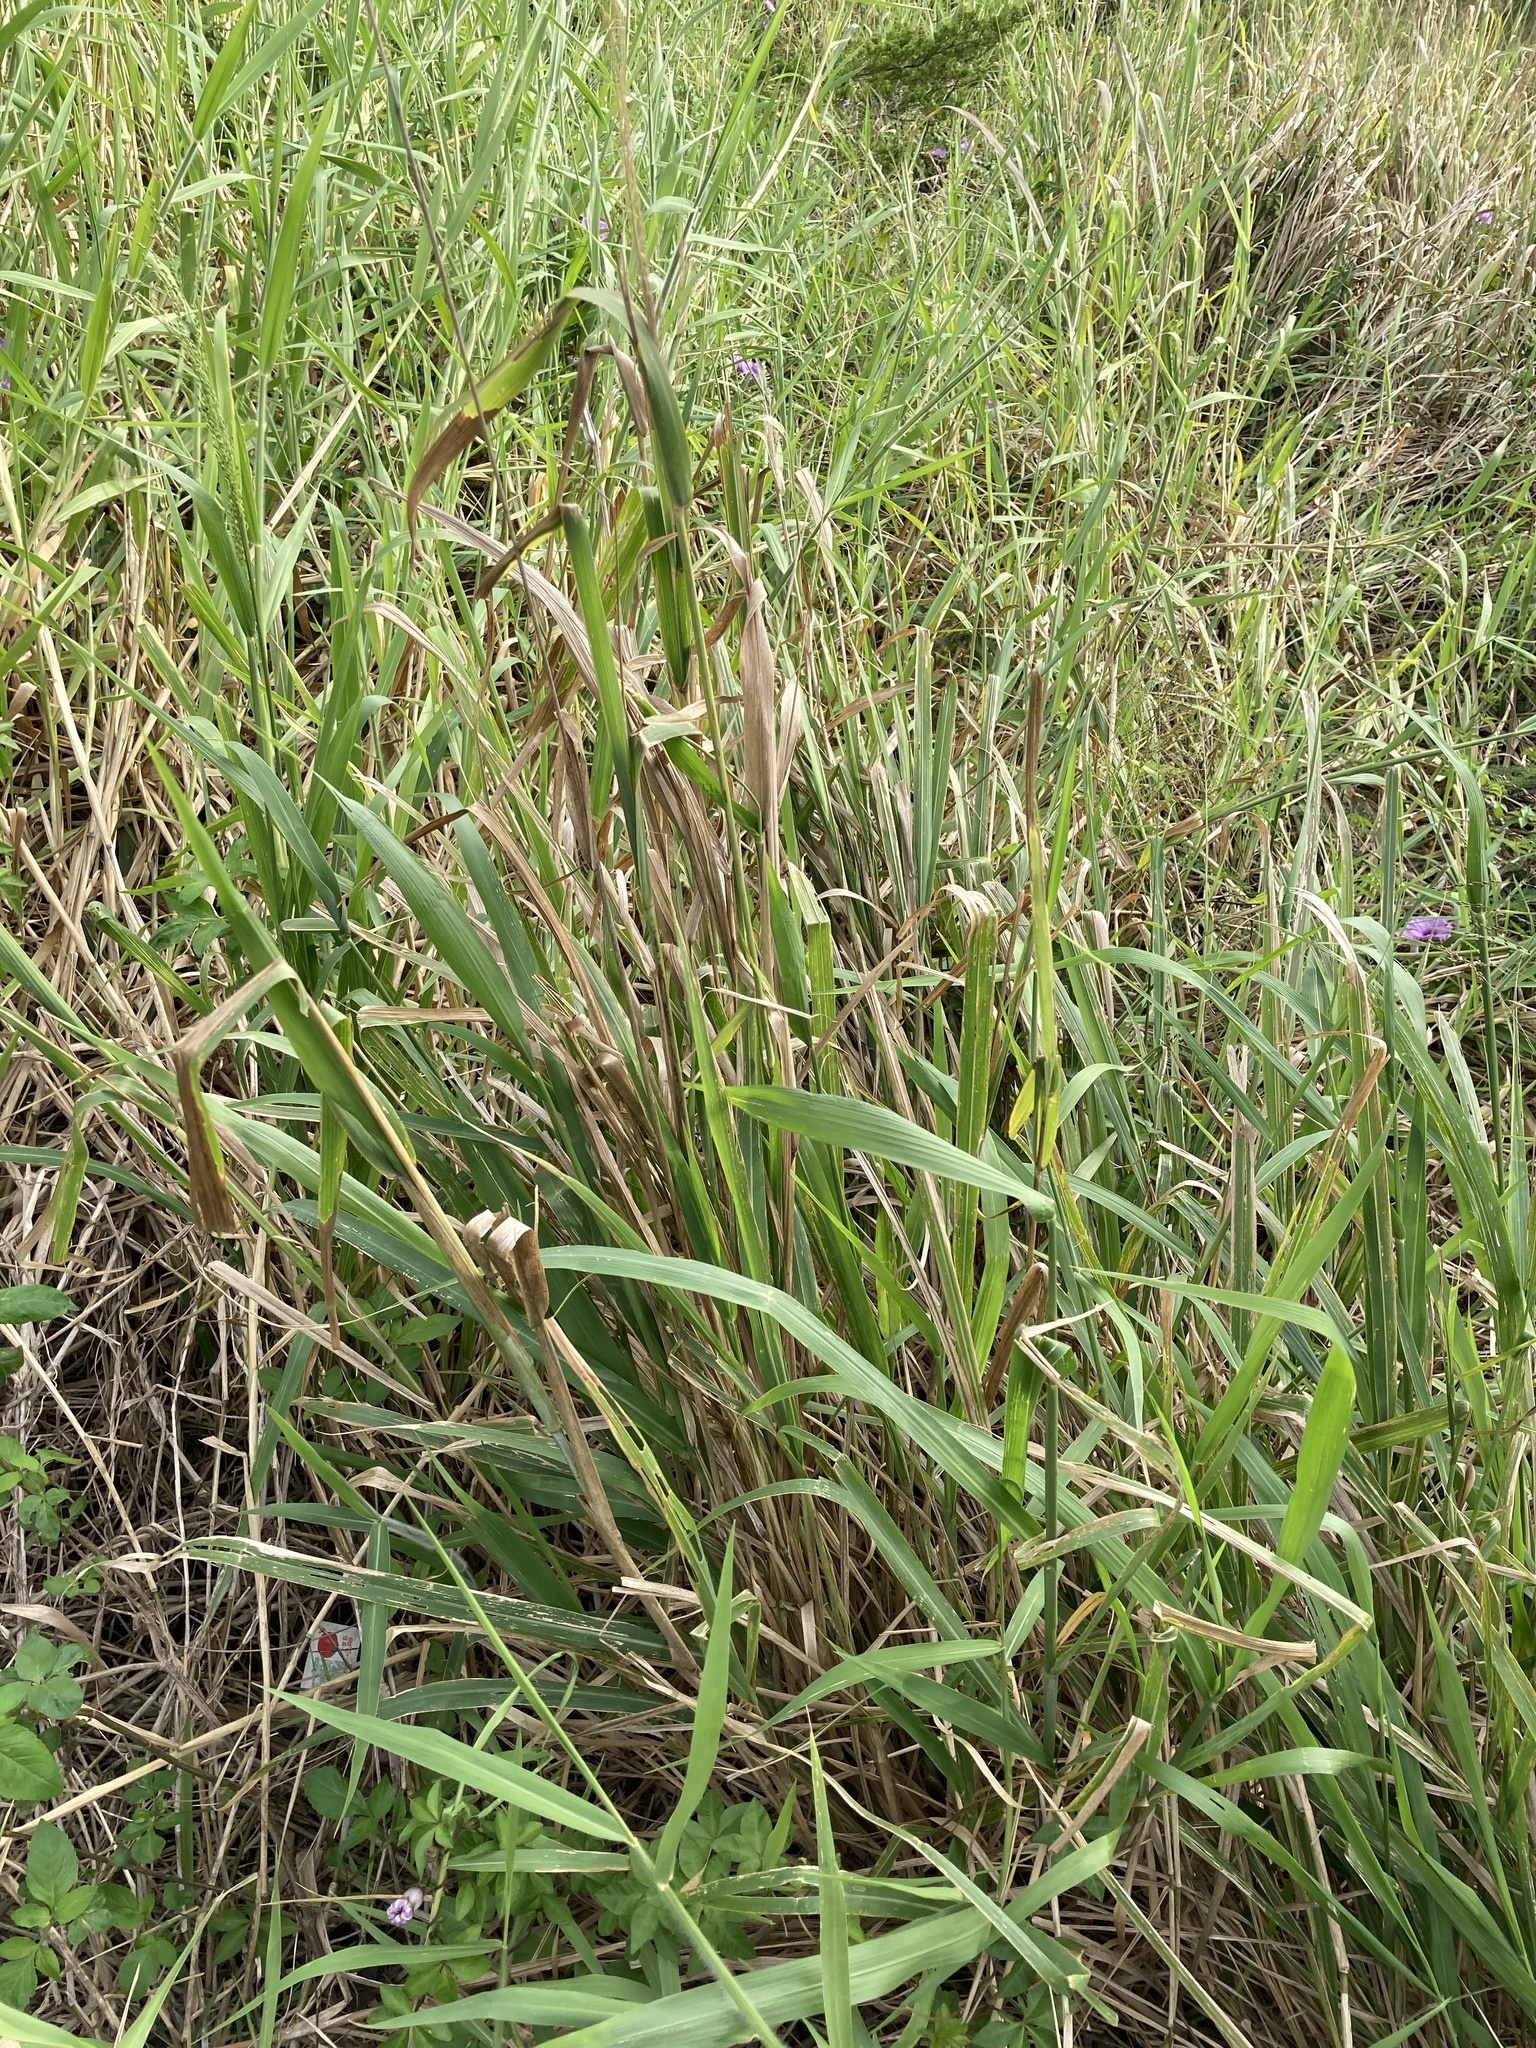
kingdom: Plantae
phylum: Tracheophyta
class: Liliopsida
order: Poales
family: Poaceae
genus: Megathyrsus
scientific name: Megathyrsus maximus
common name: Guineagrass
